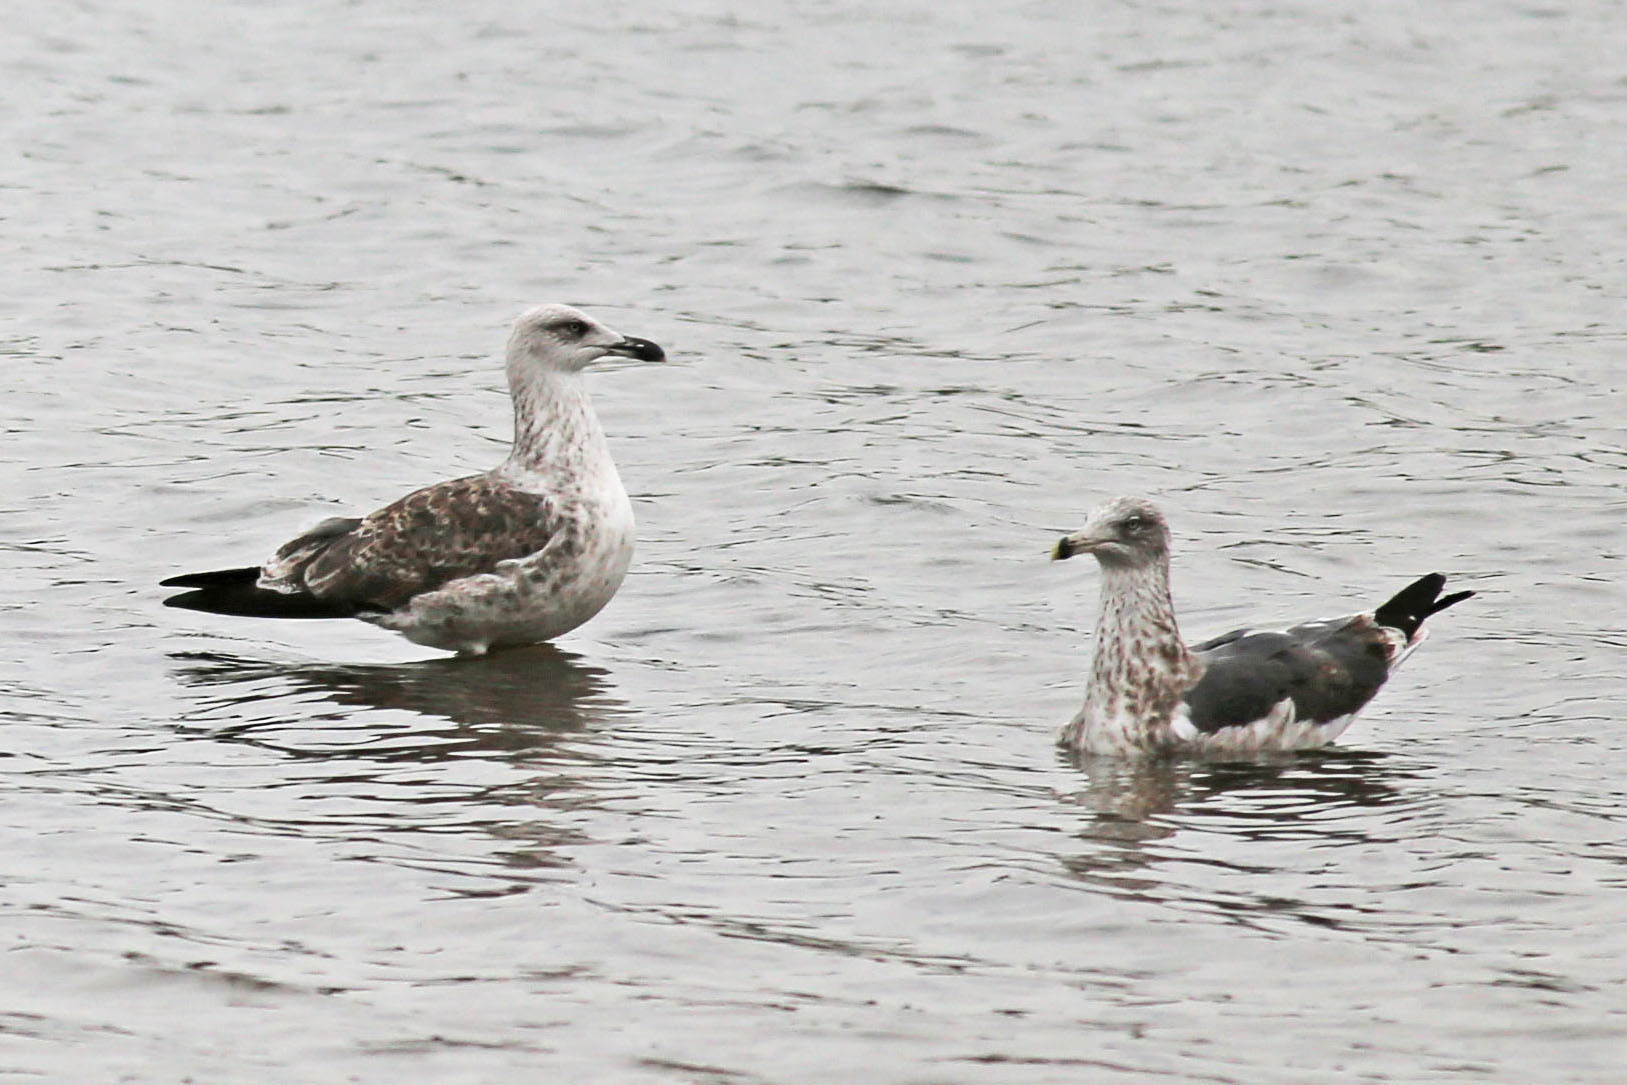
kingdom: Animalia
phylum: Chordata
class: Aves
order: Charadriiformes
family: Laridae
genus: Larus
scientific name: Larus fuscus
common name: Lesser black-backed gull
